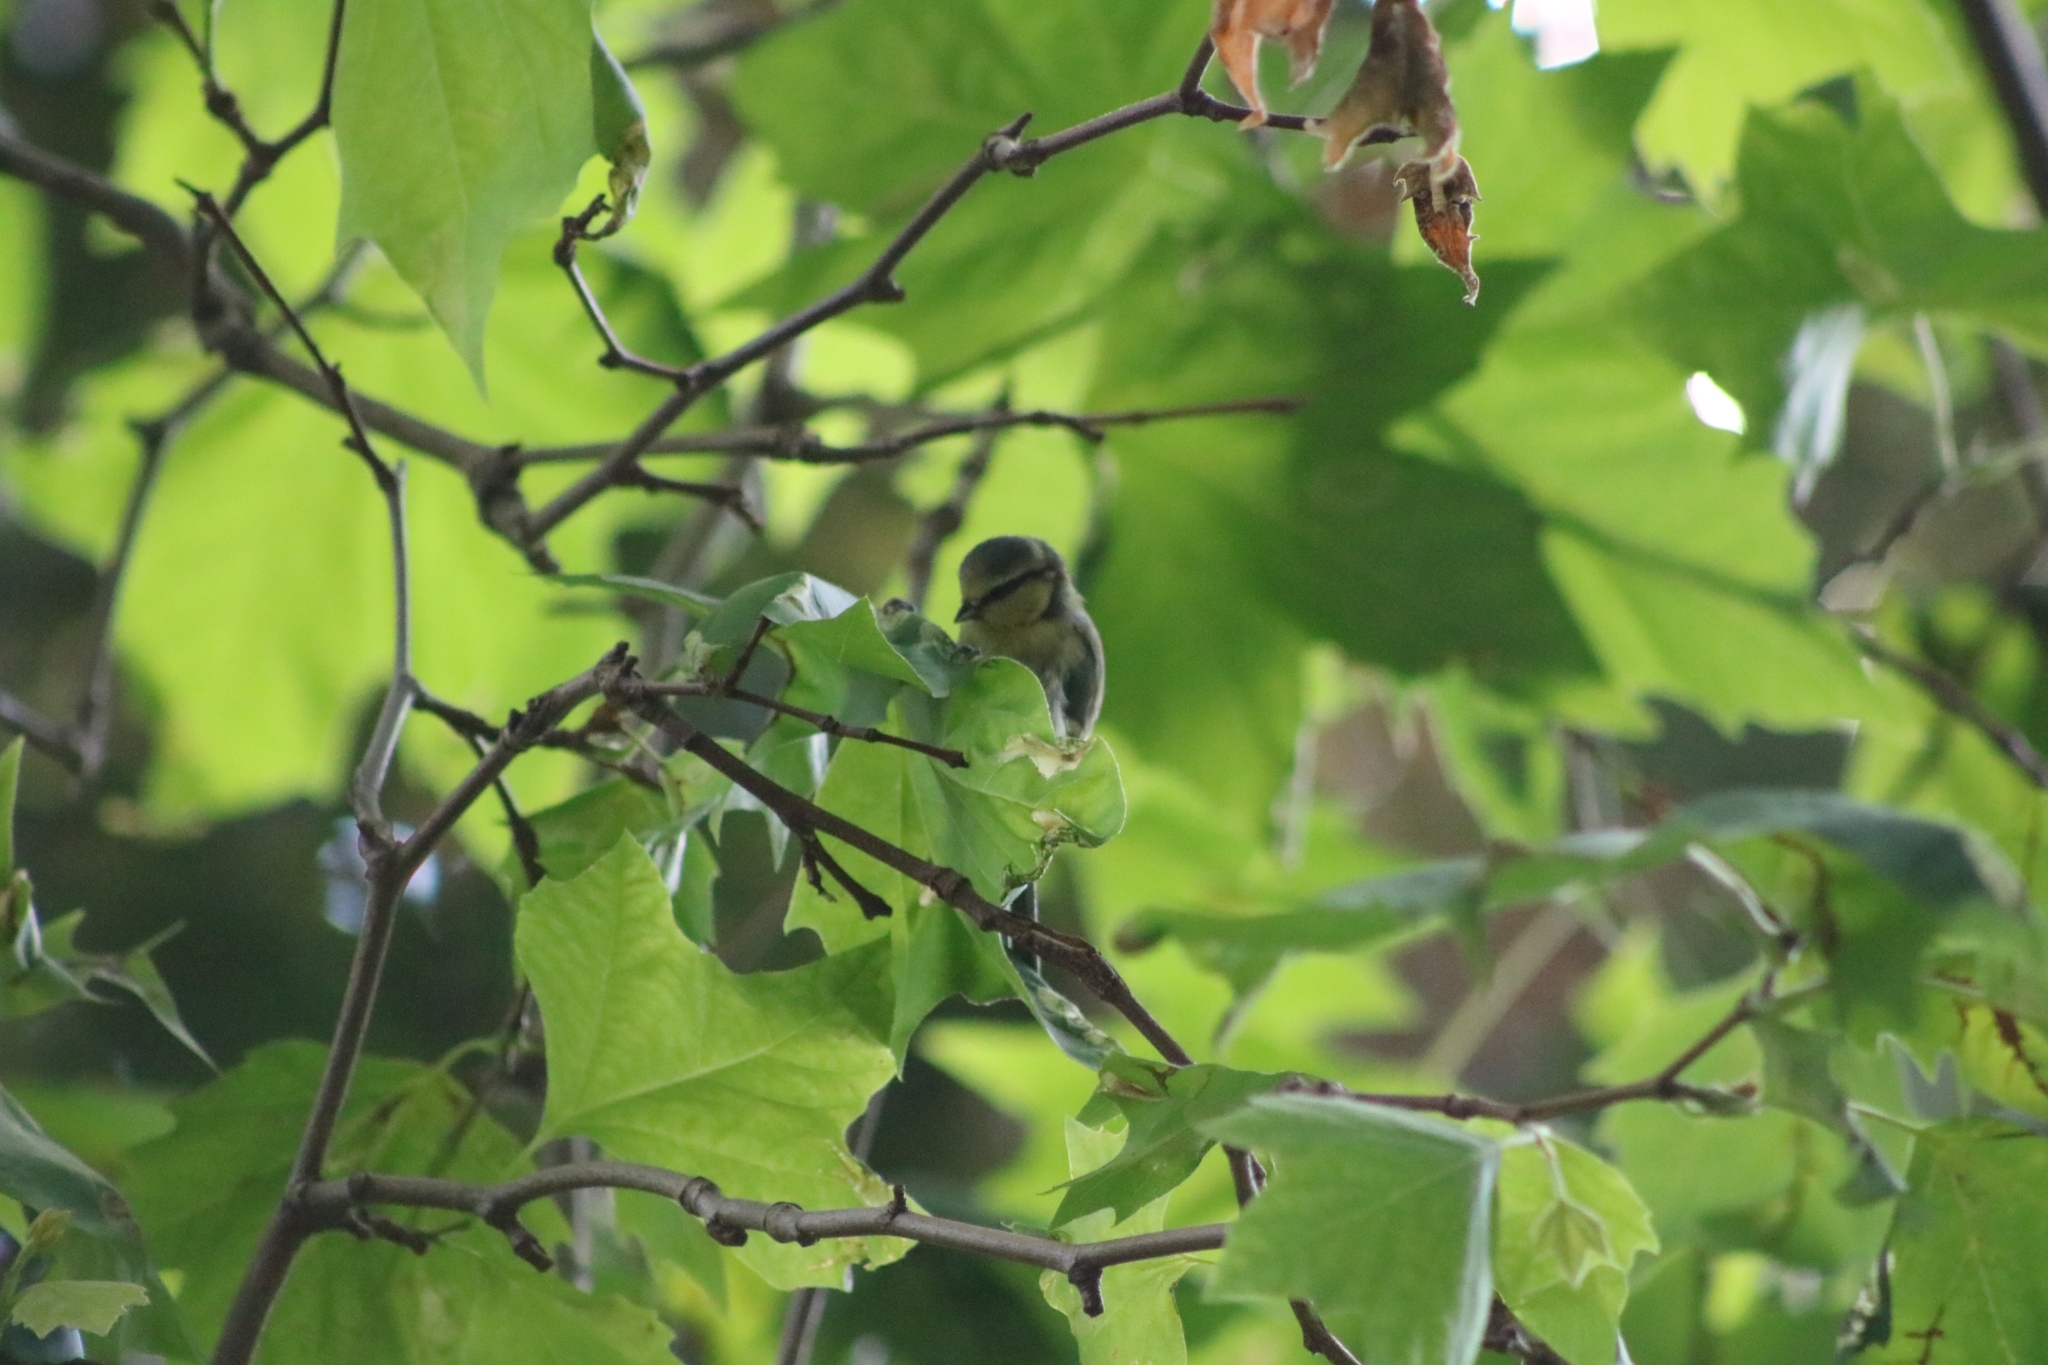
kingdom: Animalia
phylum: Chordata
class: Aves
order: Passeriformes
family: Paridae
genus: Cyanistes
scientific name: Cyanistes caeruleus
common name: Eurasian blue tit
